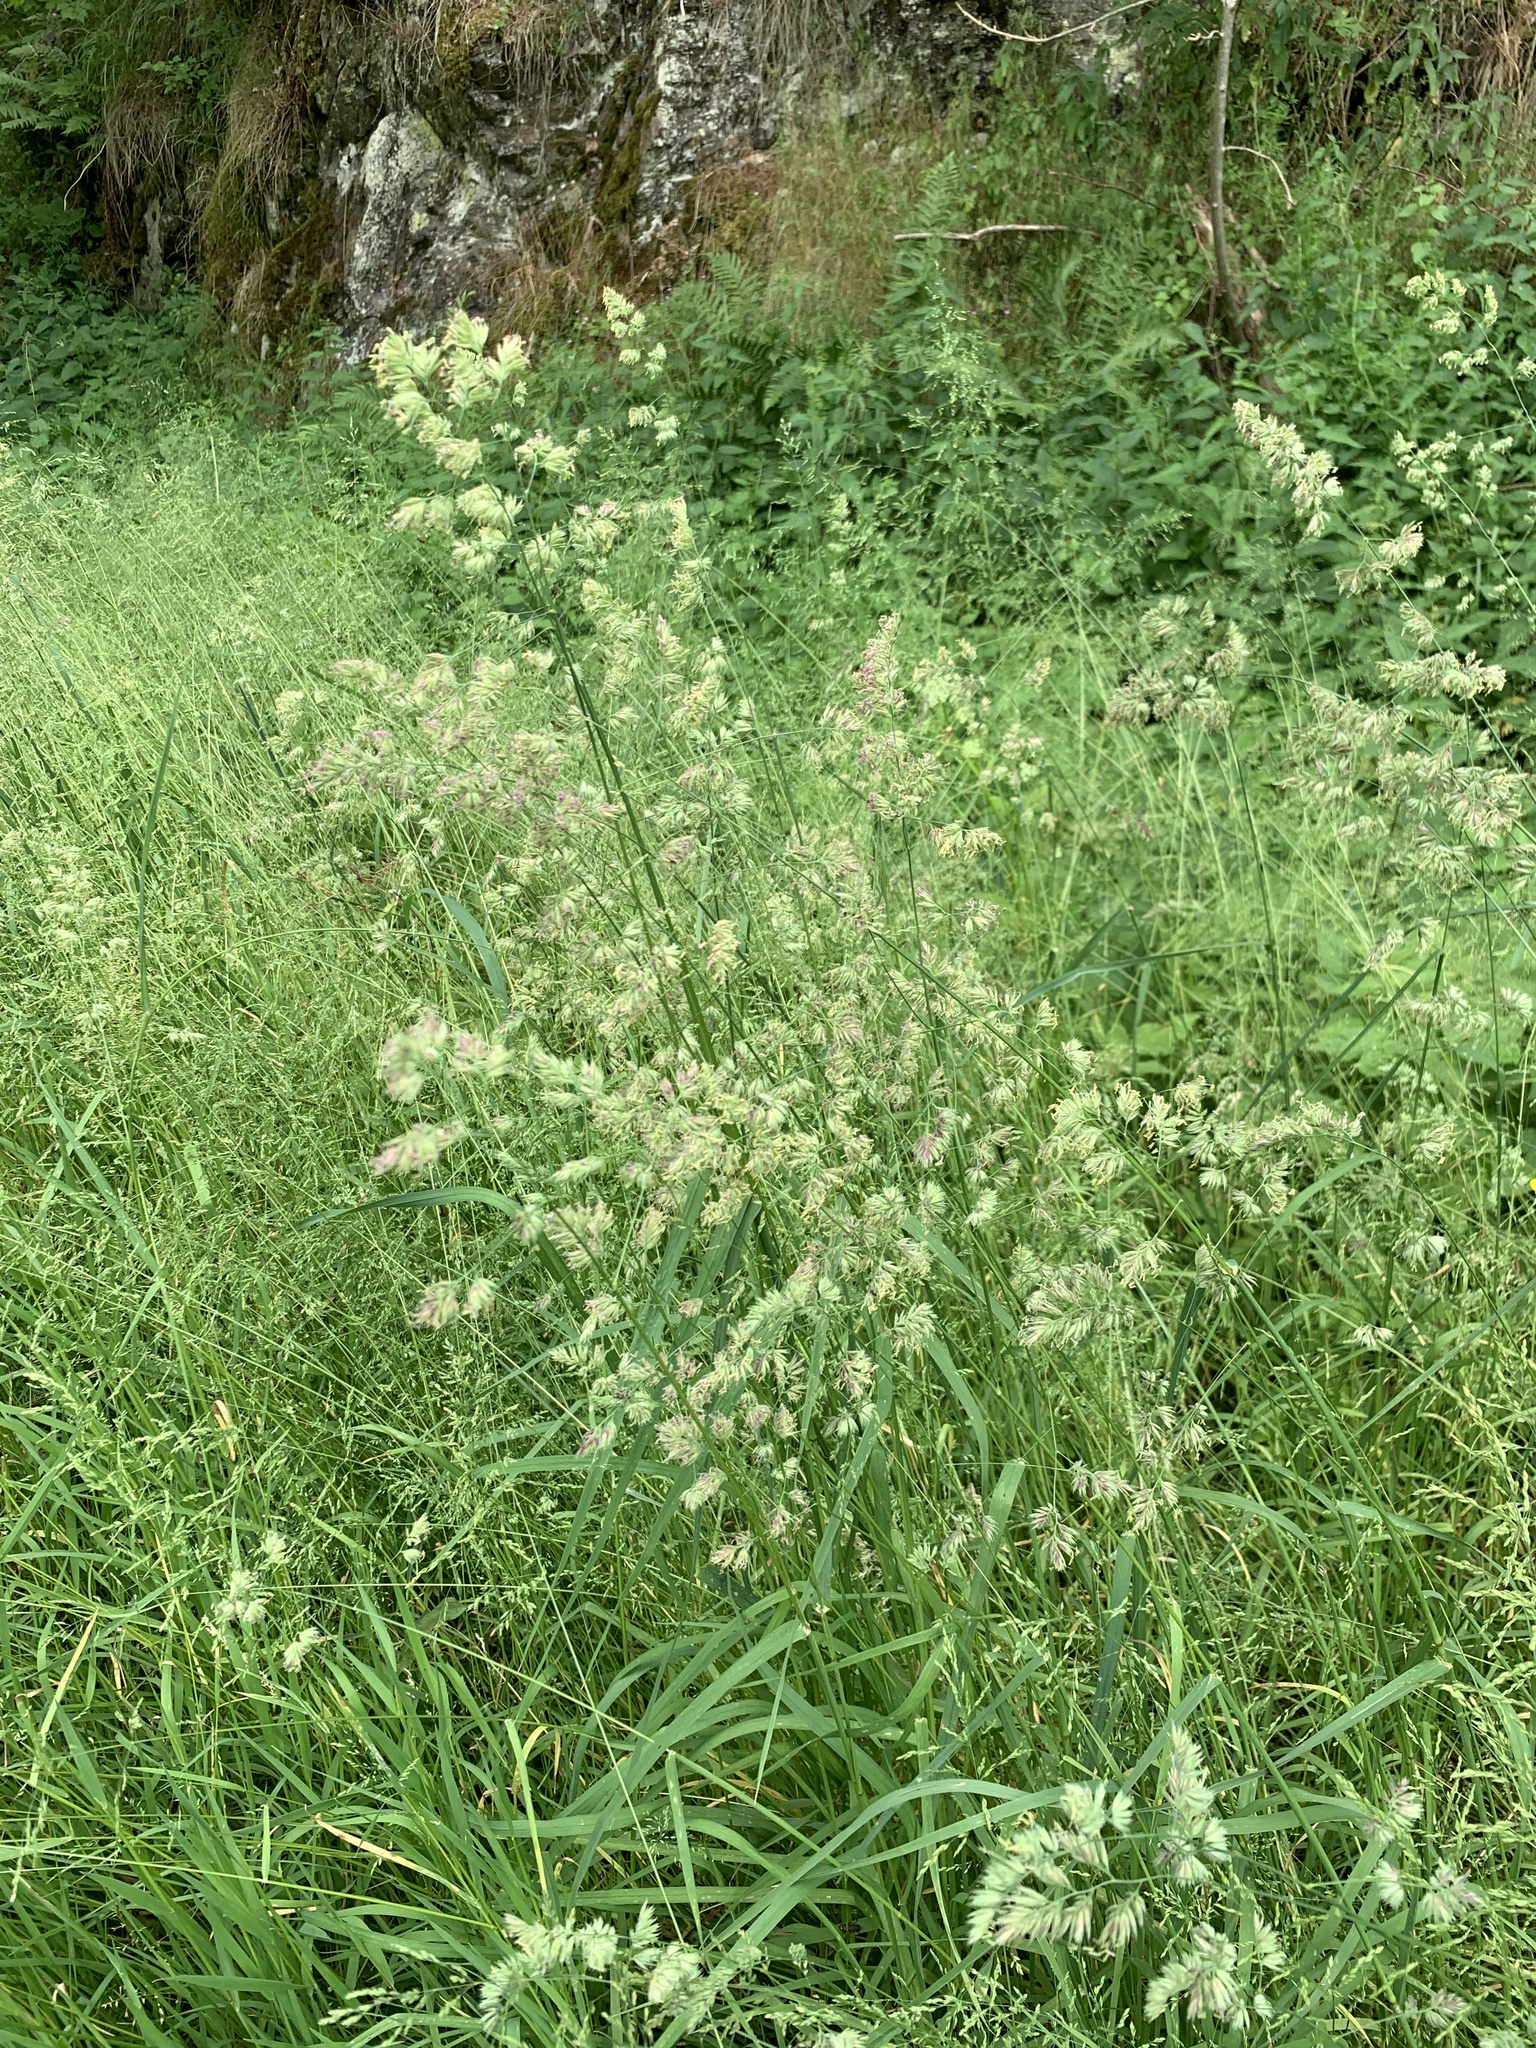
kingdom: Plantae
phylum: Tracheophyta
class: Liliopsida
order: Poales
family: Poaceae
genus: Dactylis
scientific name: Dactylis glomerata
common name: Orchardgrass
